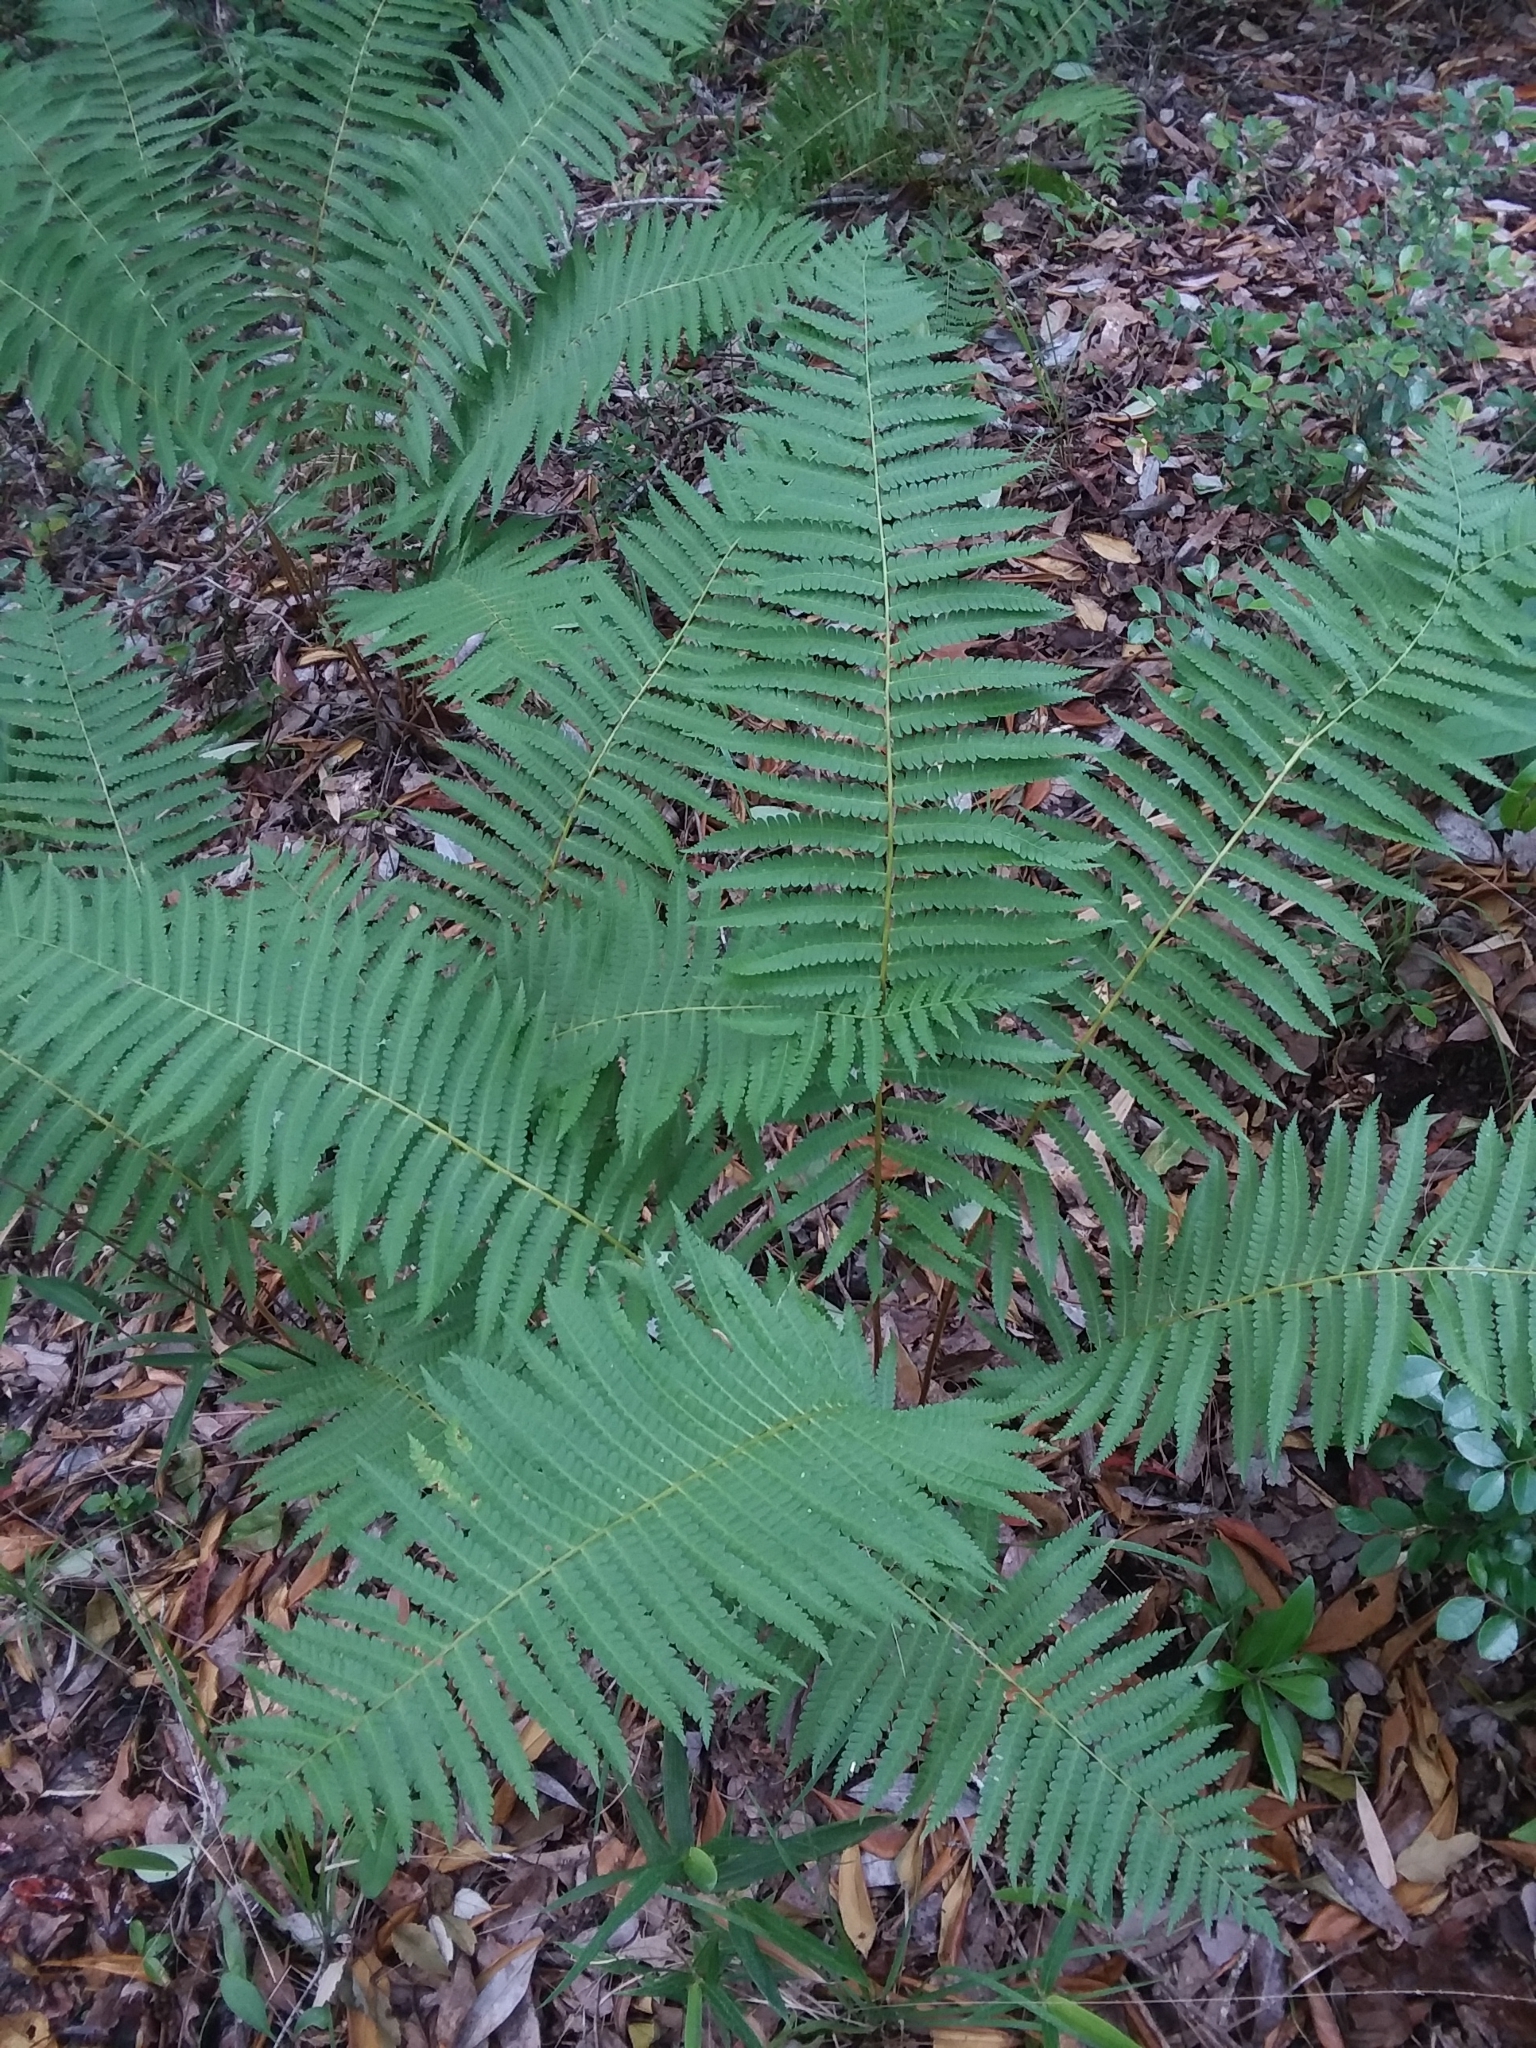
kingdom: Plantae
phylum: Tracheophyta
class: Polypodiopsida
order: Osmundales
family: Osmundaceae
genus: Osmundastrum
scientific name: Osmundastrum cinnamomeum
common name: Cinnamon fern
